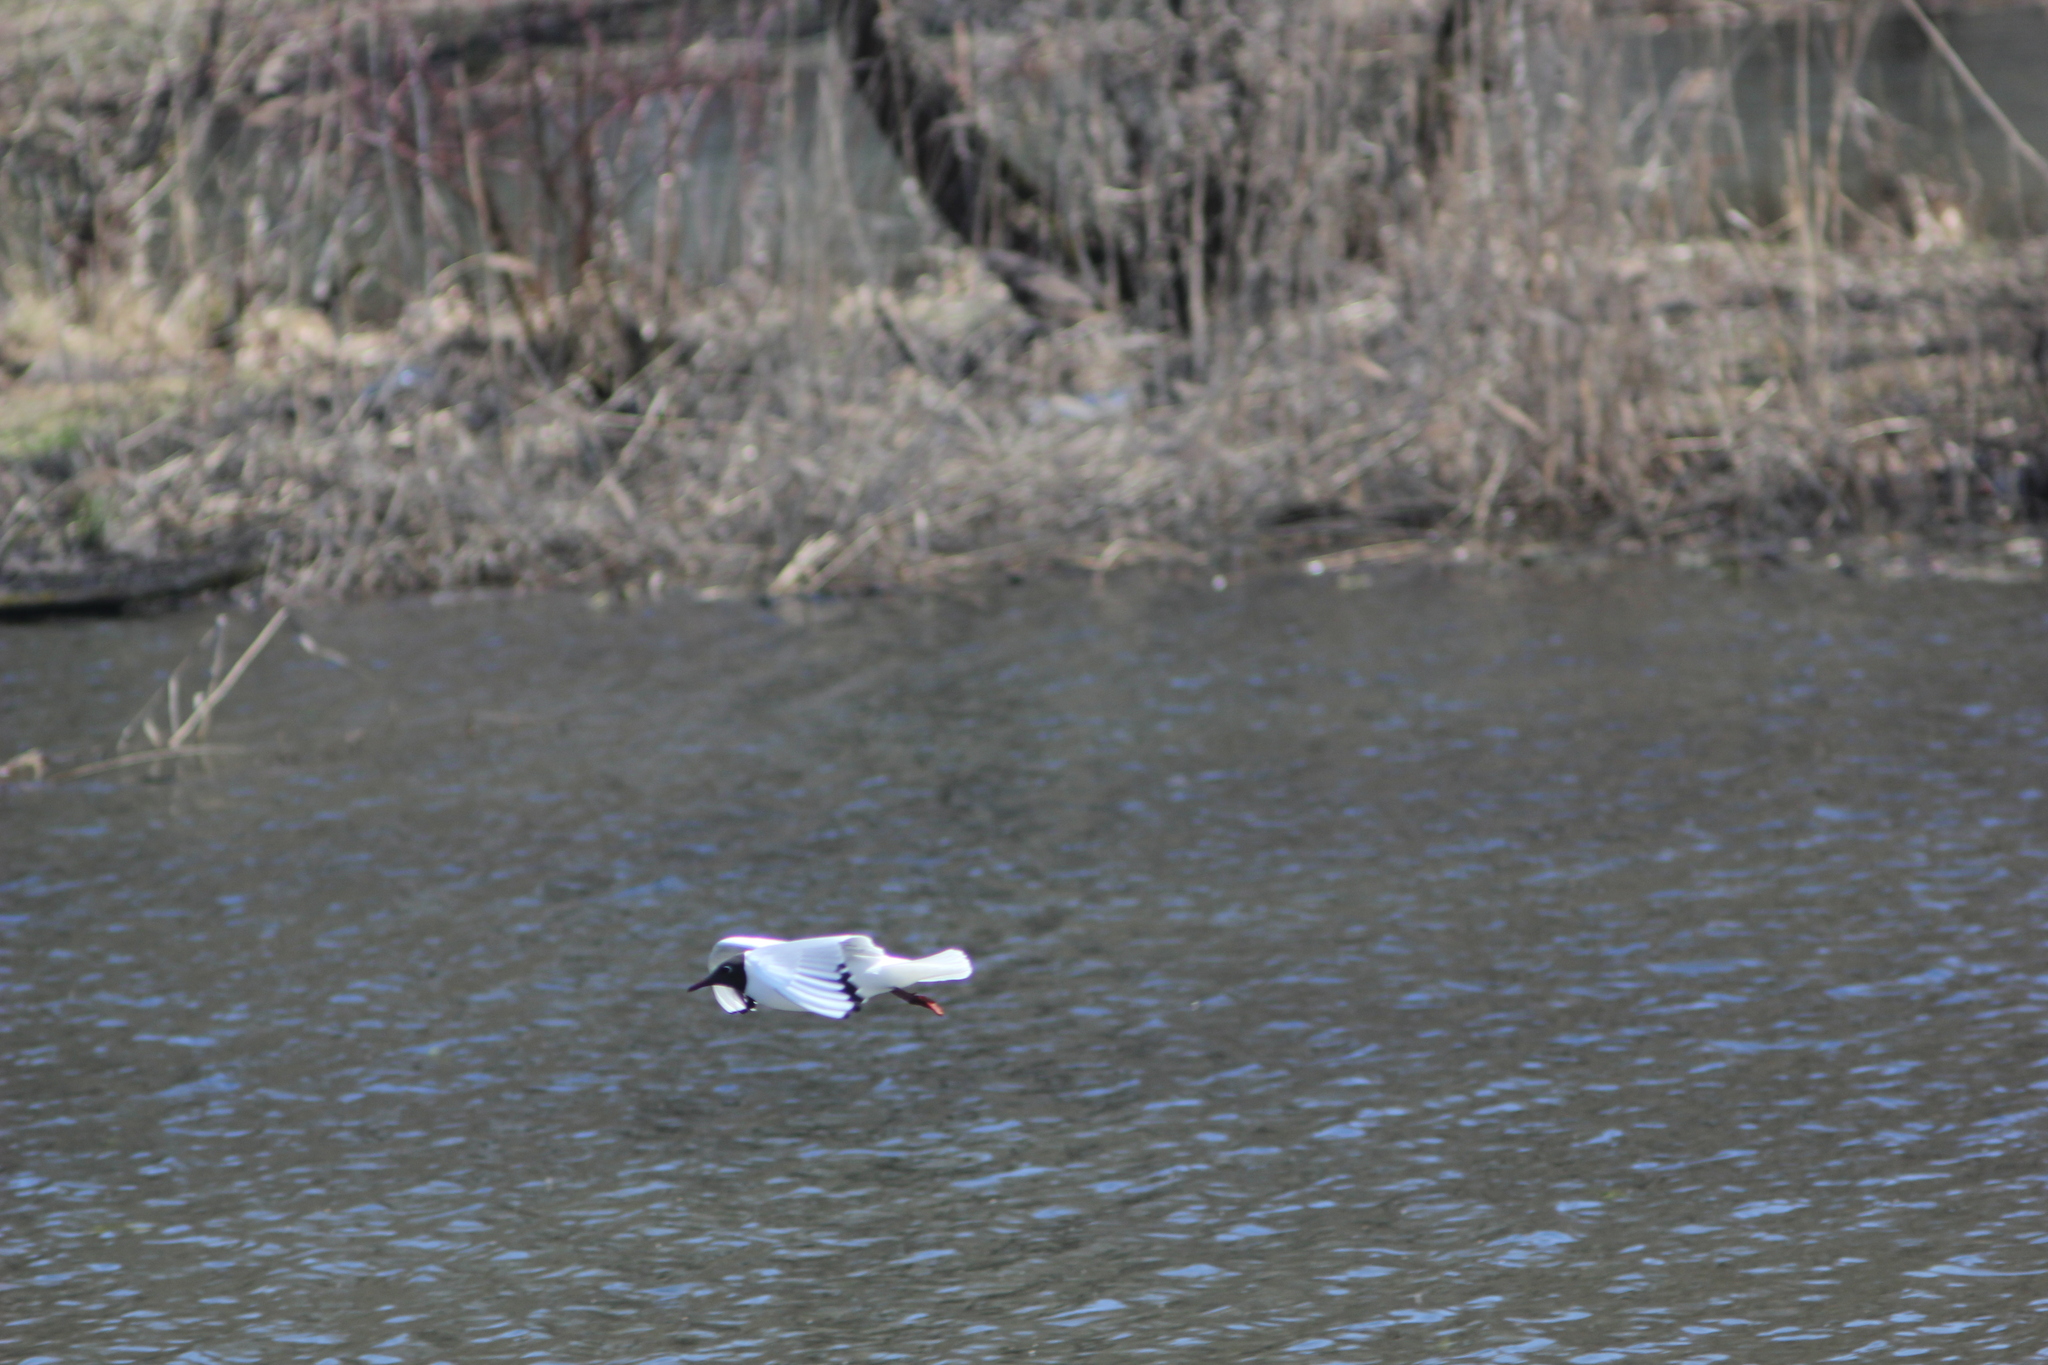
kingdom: Animalia
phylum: Chordata
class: Aves
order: Charadriiformes
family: Laridae
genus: Chroicocephalus
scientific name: Chroicocephalus ridibundus
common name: Black-headed gull
